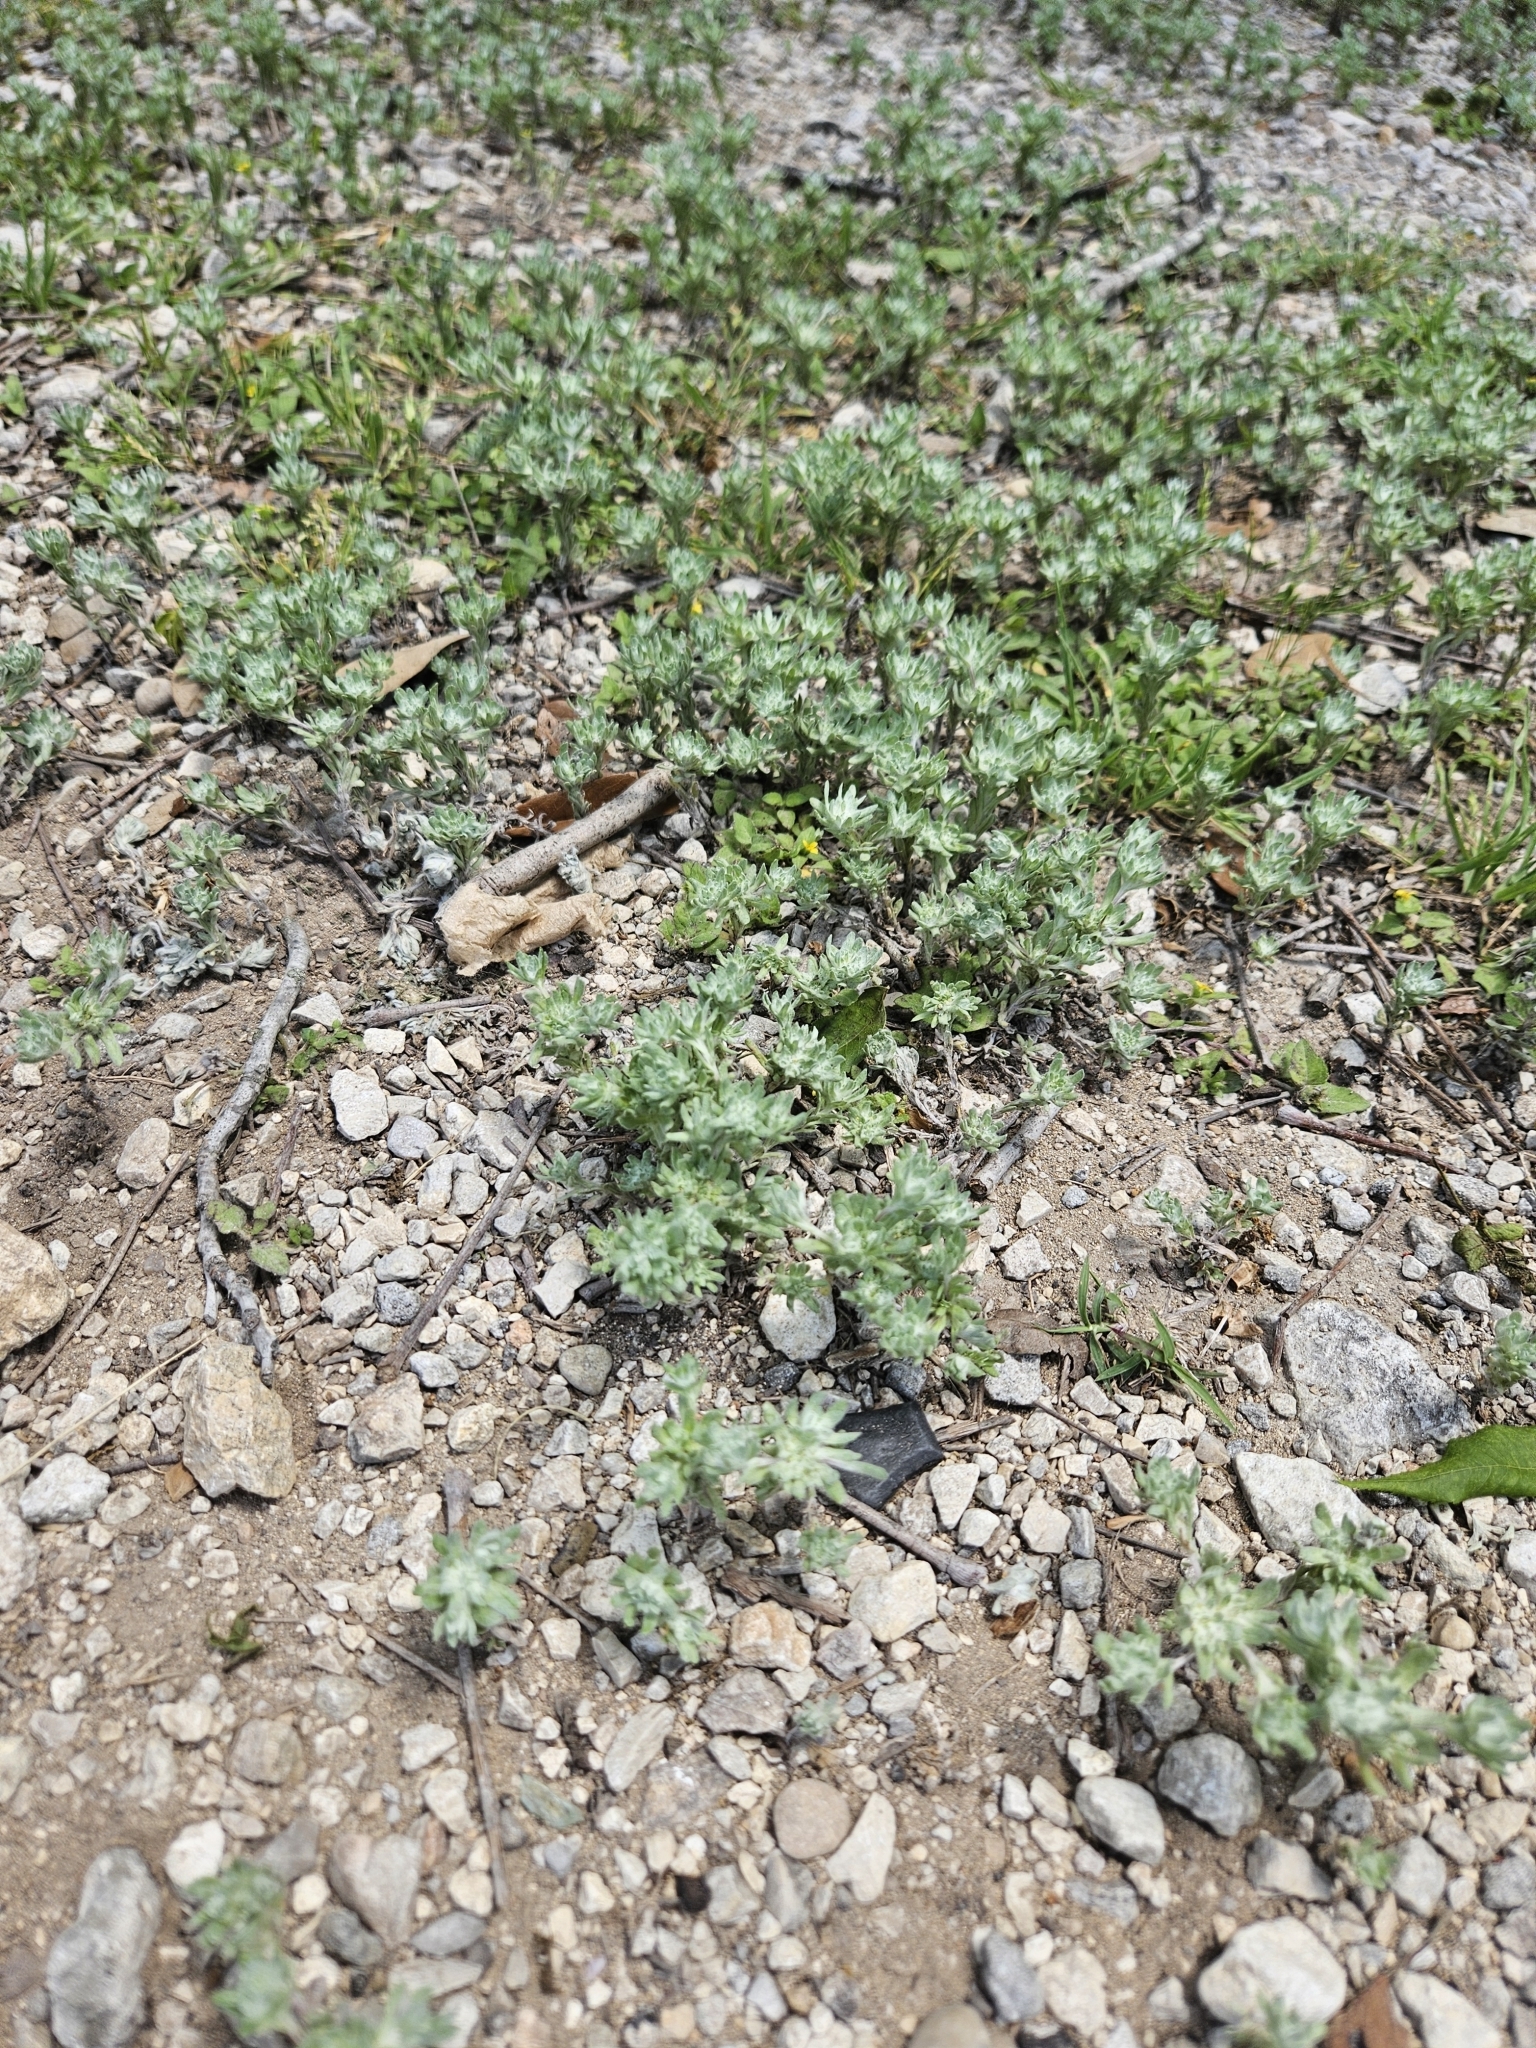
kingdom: Plantae
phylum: Tracheophyta
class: Magnoliopsida
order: Asterales
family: Asteraceae
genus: Diaperia
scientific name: Diaperia prolifera
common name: Big-head rabbit-tobacco
